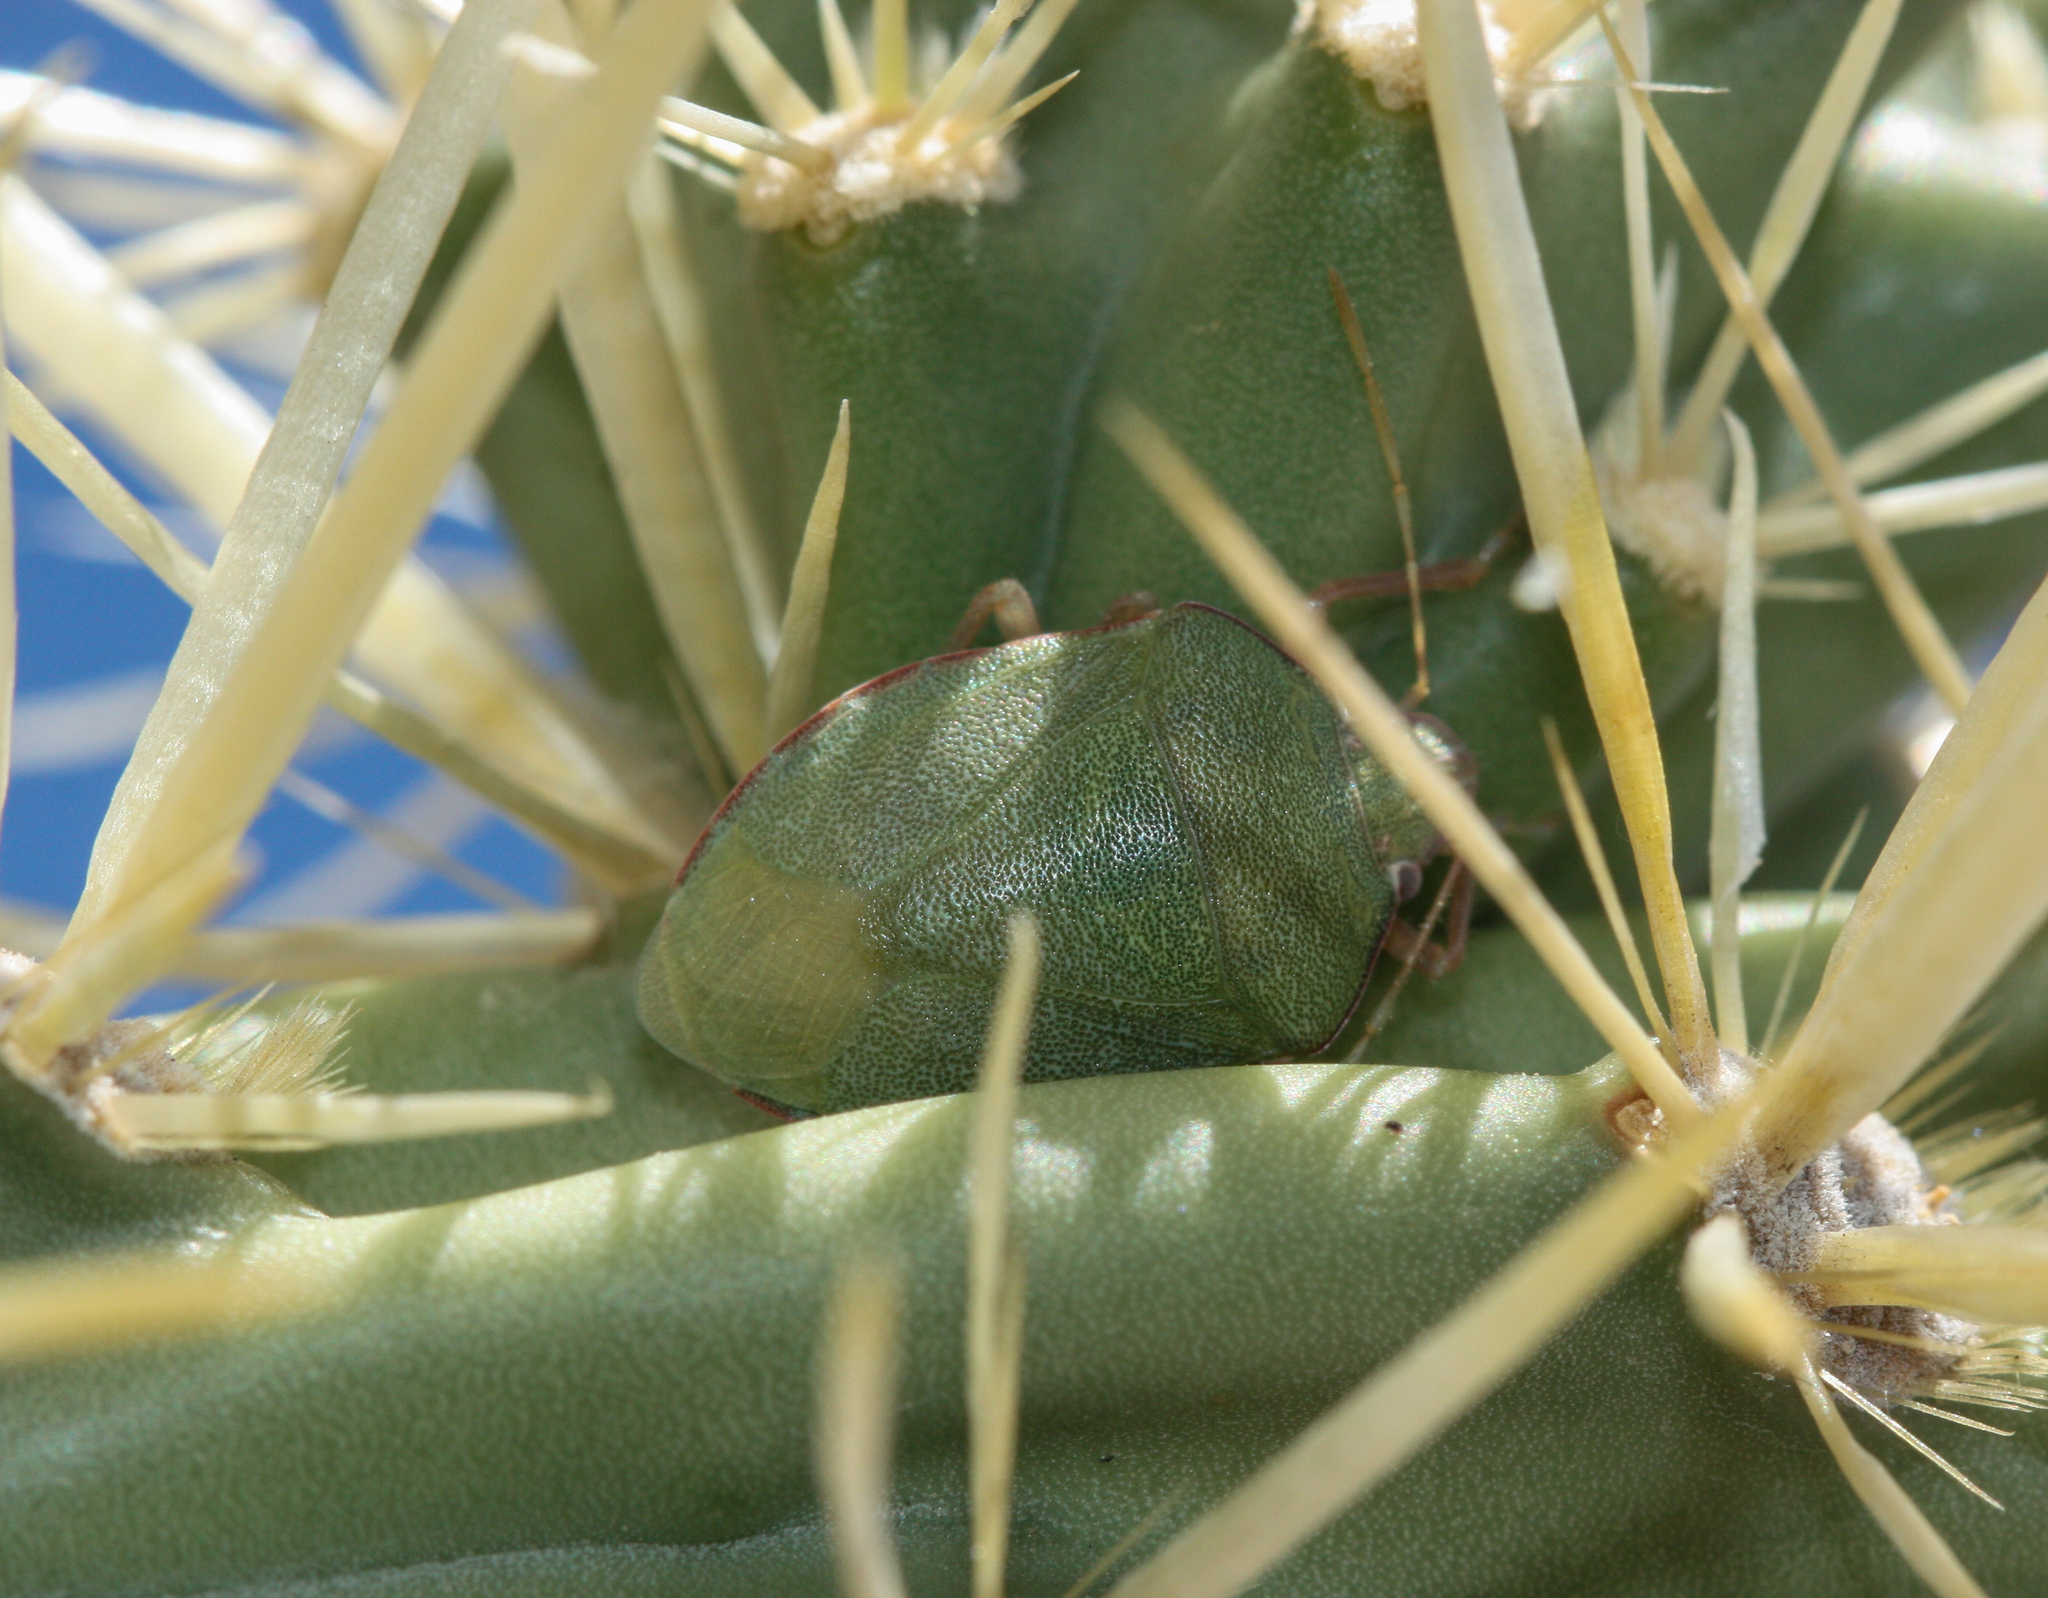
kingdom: Animalia
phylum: Arthropoda
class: Insecta
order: Hemiptera
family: Pentatomidae
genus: Chlorochroa
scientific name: Chlorochroa opuntiae
